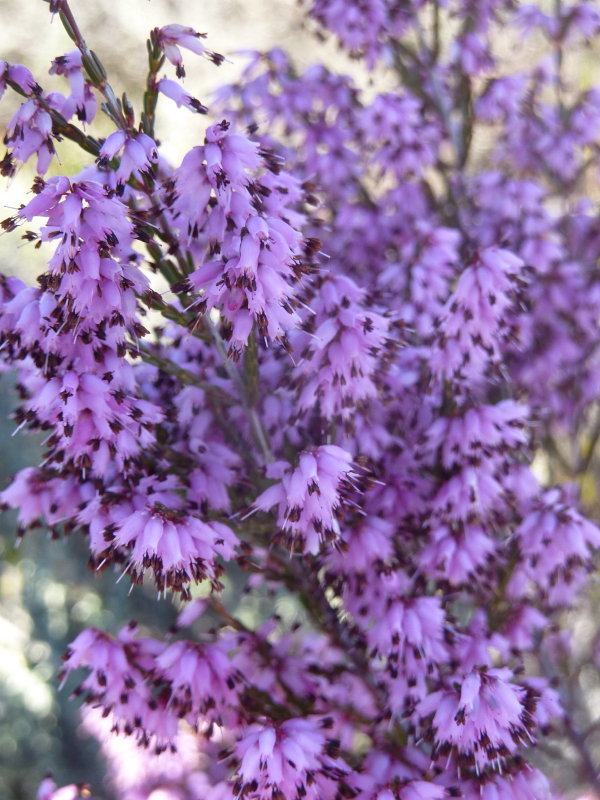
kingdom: Plantae
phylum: Tracheophyta
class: Magnoliopsida
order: Ericales
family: Ericaceae
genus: Erica
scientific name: Erica rosacea
